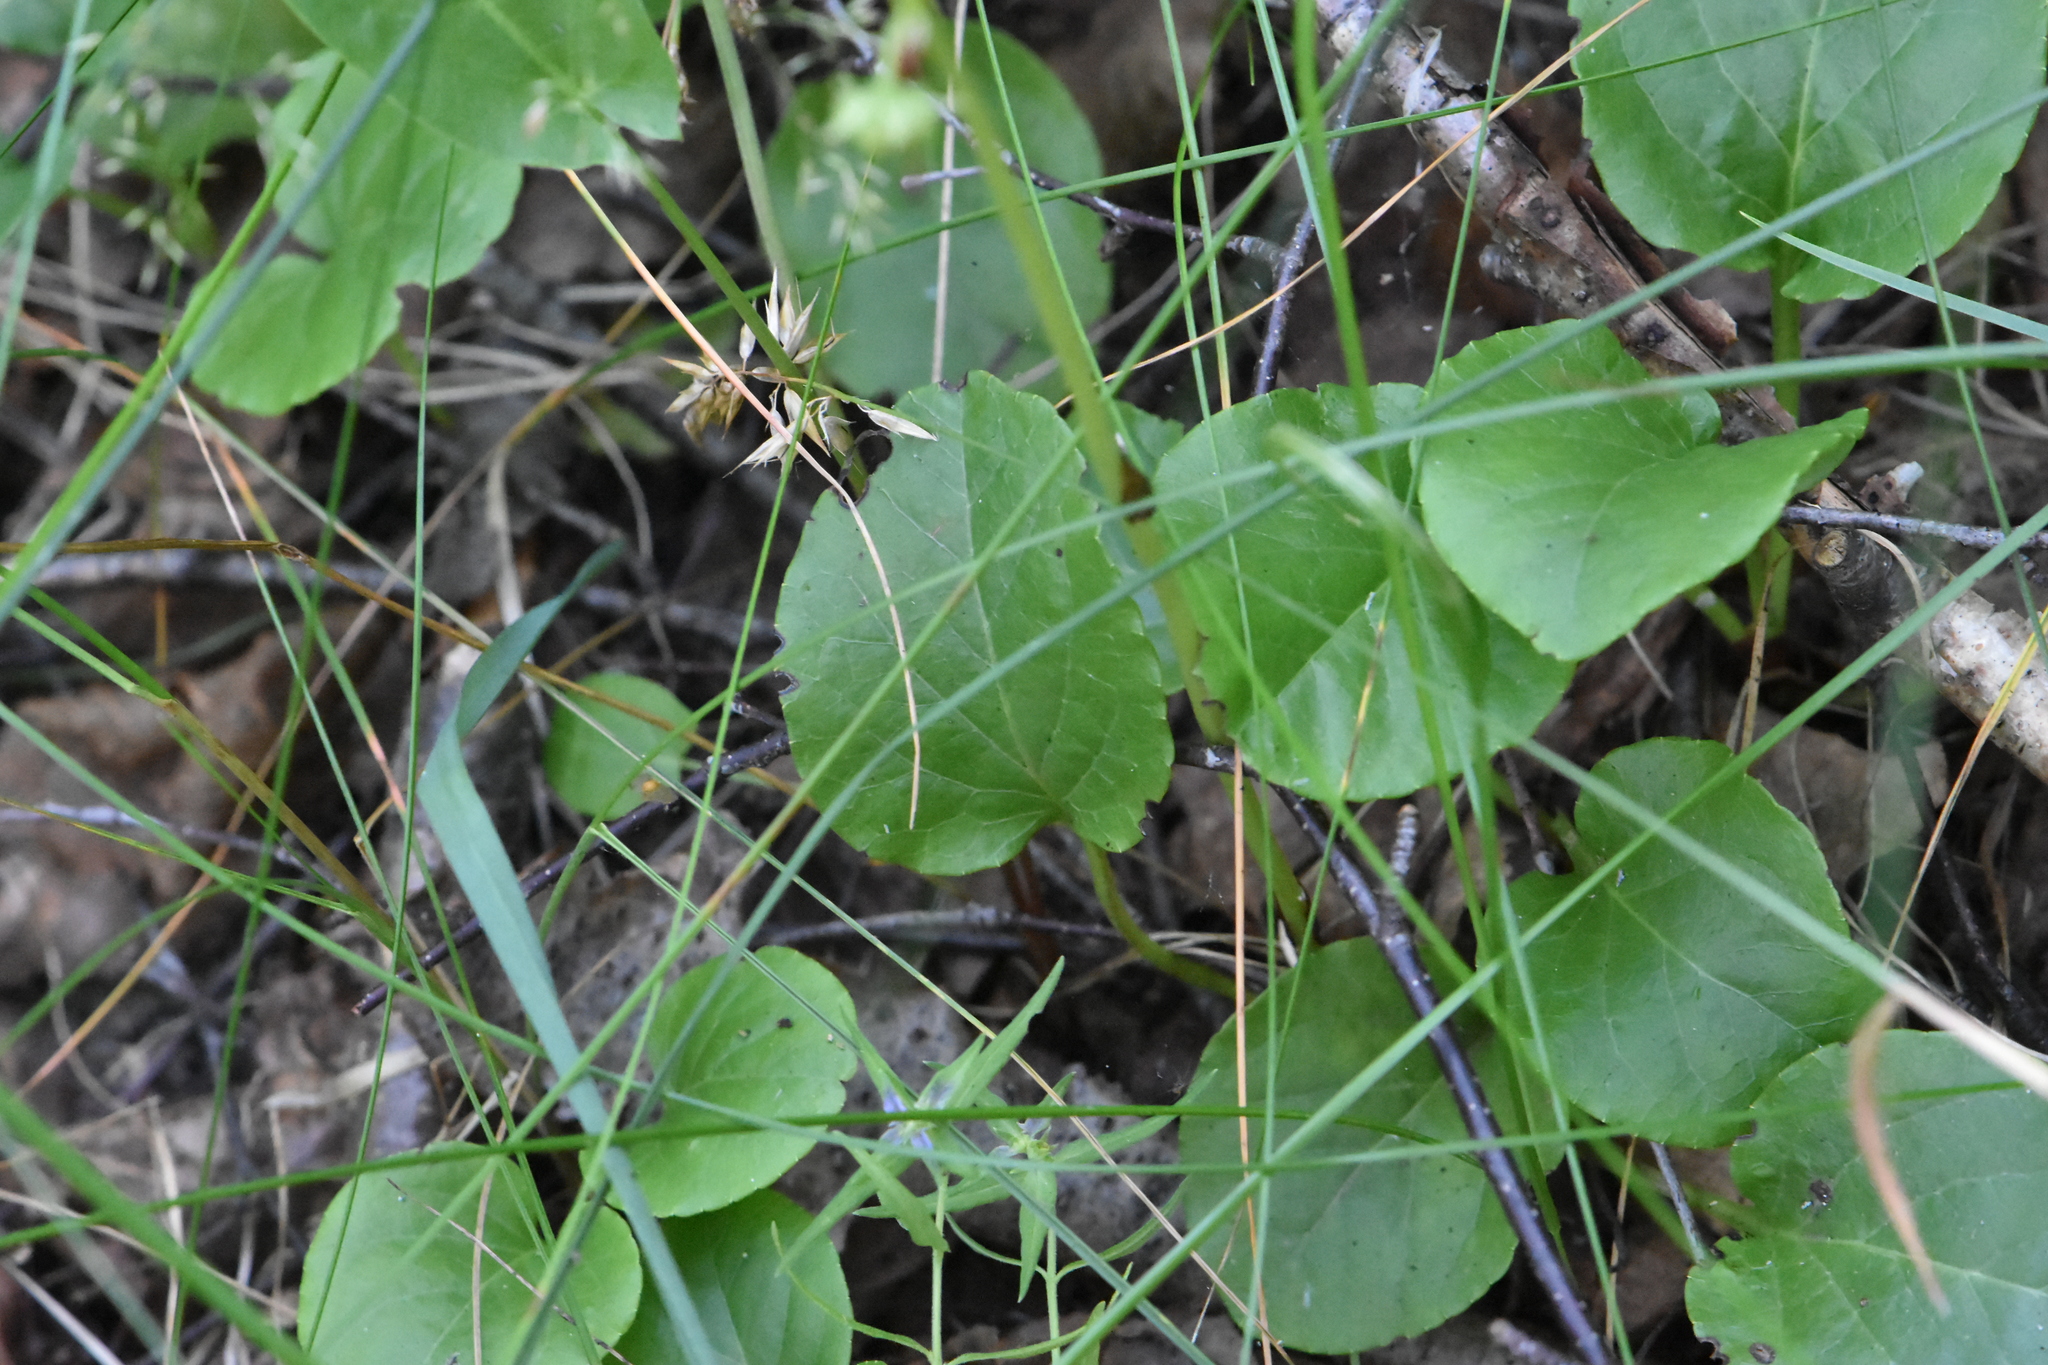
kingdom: Plantae
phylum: Tracheophyta
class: Magnoliopsida
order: Ericales
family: Ericaceae
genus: Pyrola
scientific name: Pyrola rotundifolia
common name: Round-leaved wintergreen
